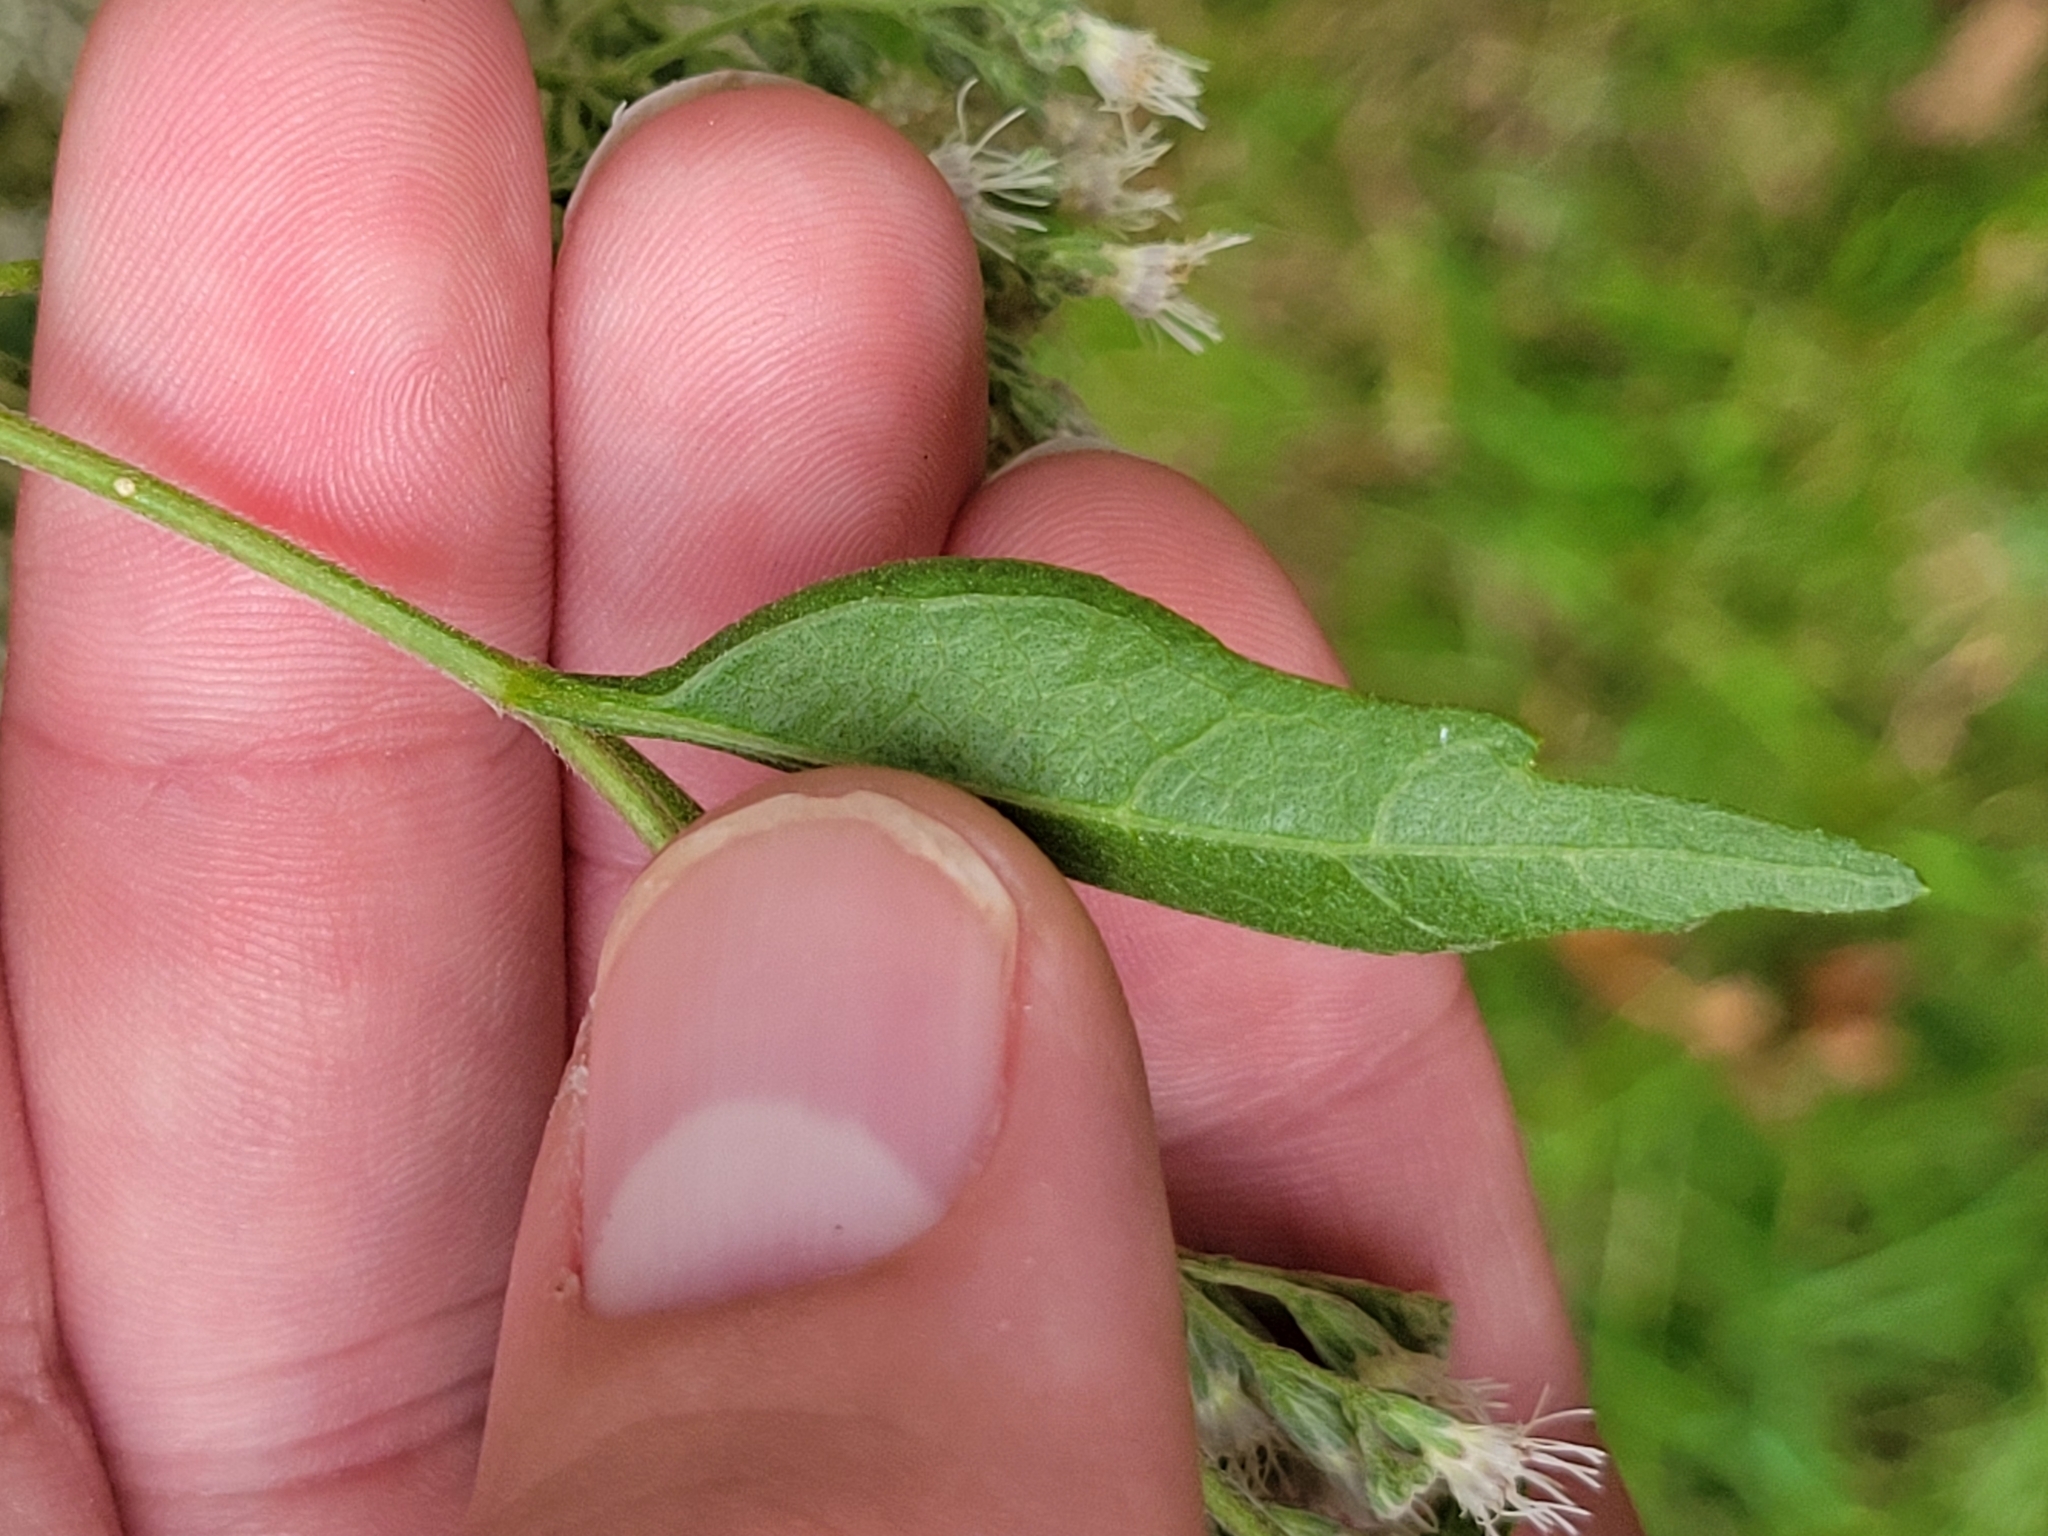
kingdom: Plantae
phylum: Tracheophyta
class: Magnoliopsida
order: Asterales
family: Asteraceae
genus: Eupatorium
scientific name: Eupatorium serotinum
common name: Late boneset
